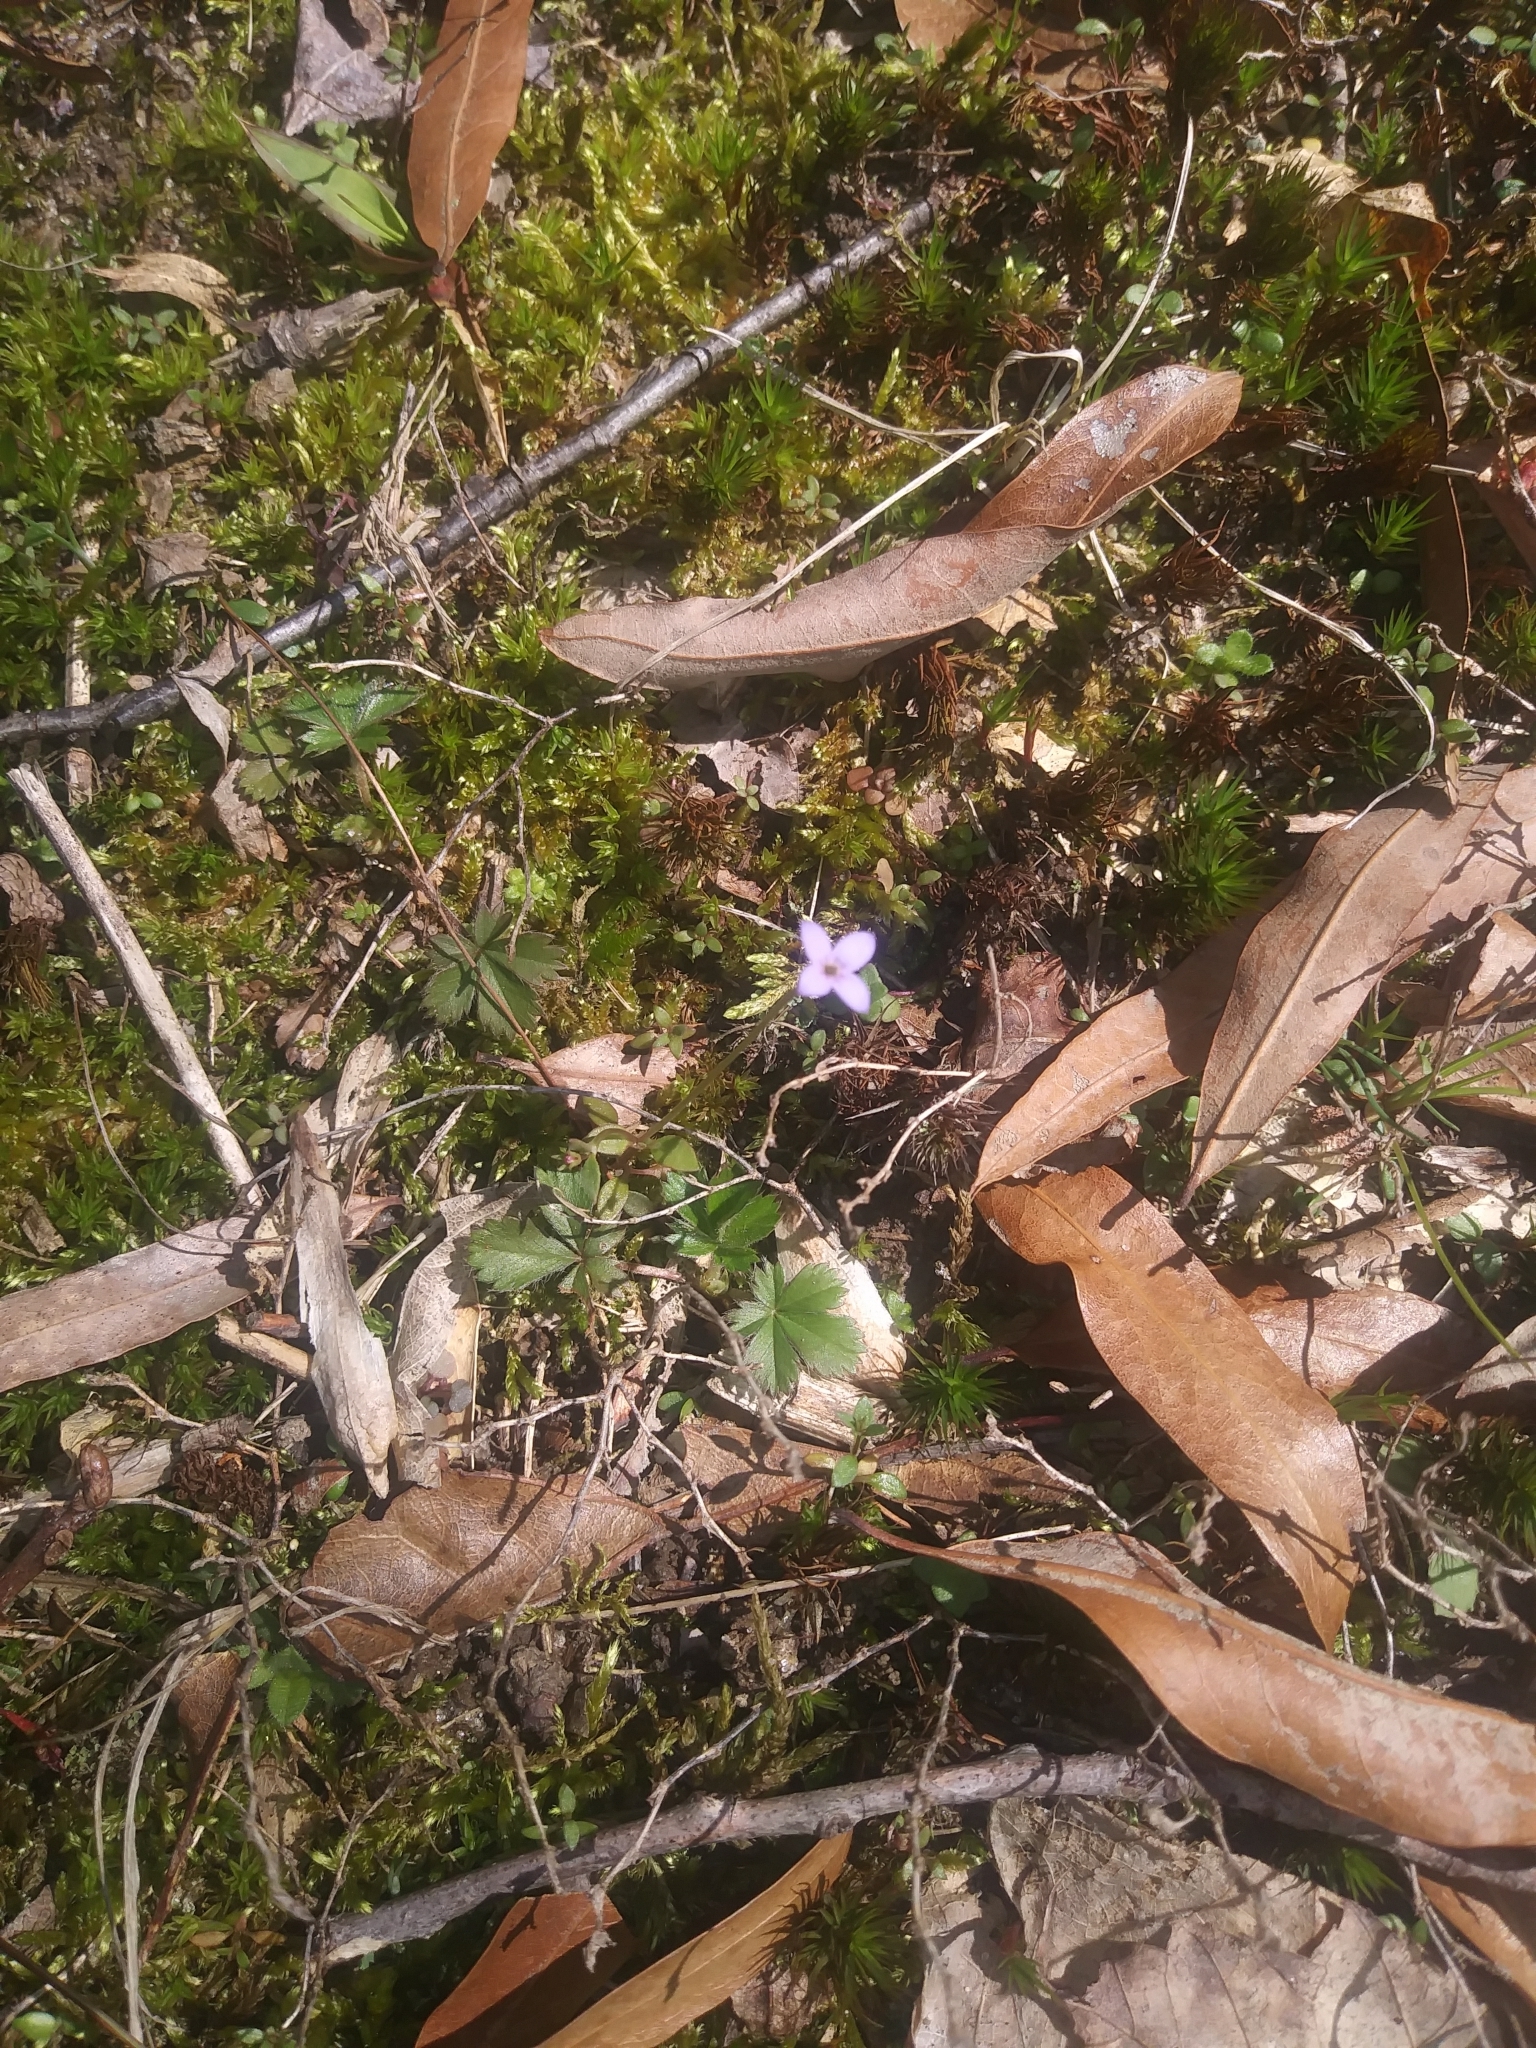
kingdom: Plantae
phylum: Tracheophyta
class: Magnoliopsida
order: Gentianales
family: Rubiaceae
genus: Houstonia
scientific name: Houstonia pusilla
